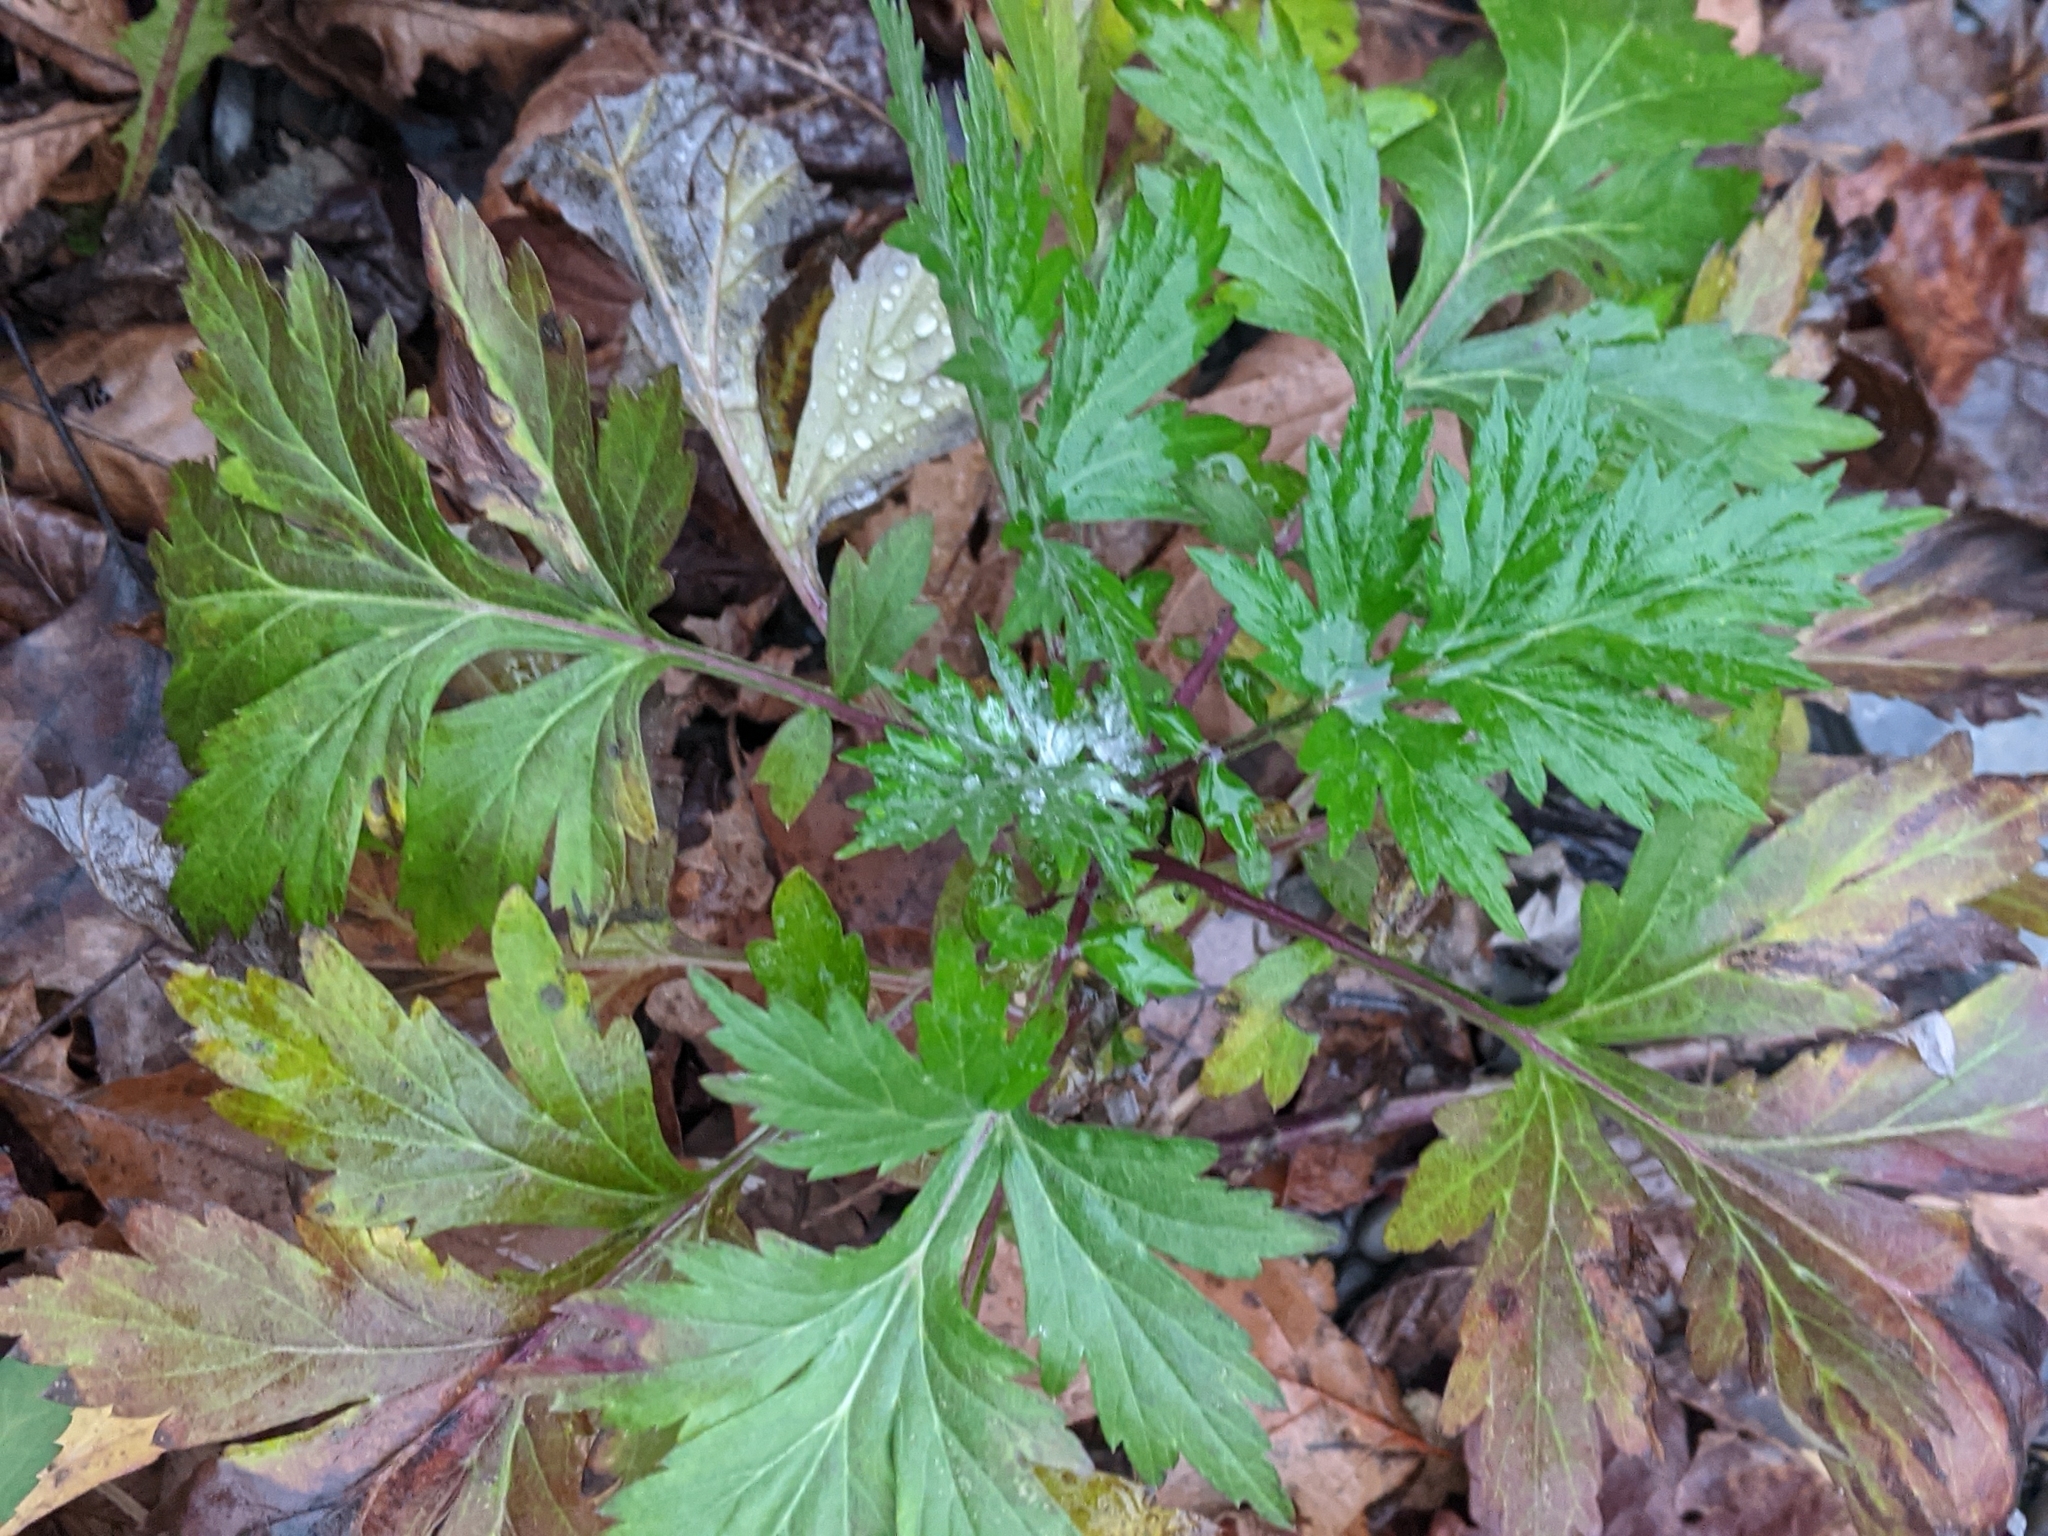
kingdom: Plantae
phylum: Tracheophyta
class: Magnoliopsida
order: Asterales
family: Asteraceae
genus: Artemisia
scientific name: Artemisia vulgaris
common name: Mugwort
